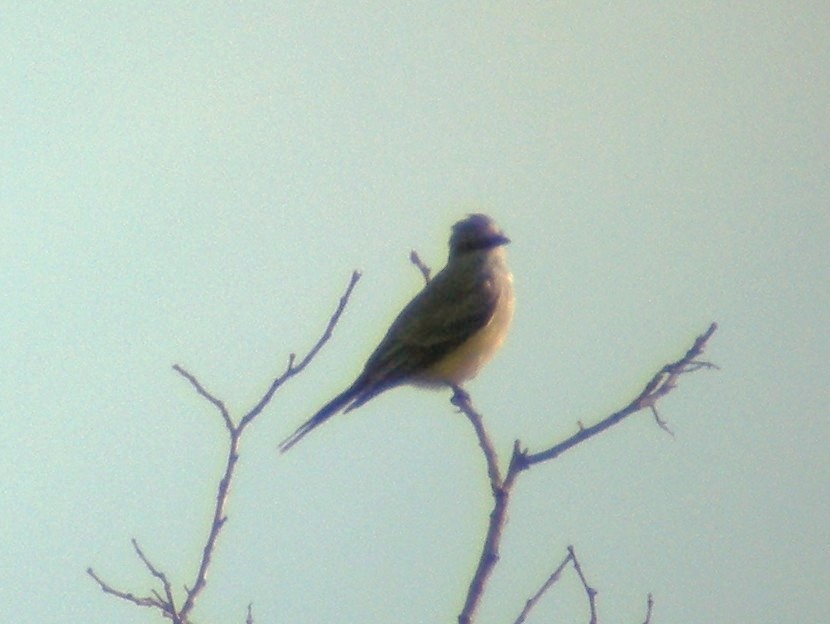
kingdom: Animalia
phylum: Chordata
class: Aves
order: Passeriformes
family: Tyrannidae
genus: Tyrannus
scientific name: Tyrannus verticalis
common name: Western kingbird
